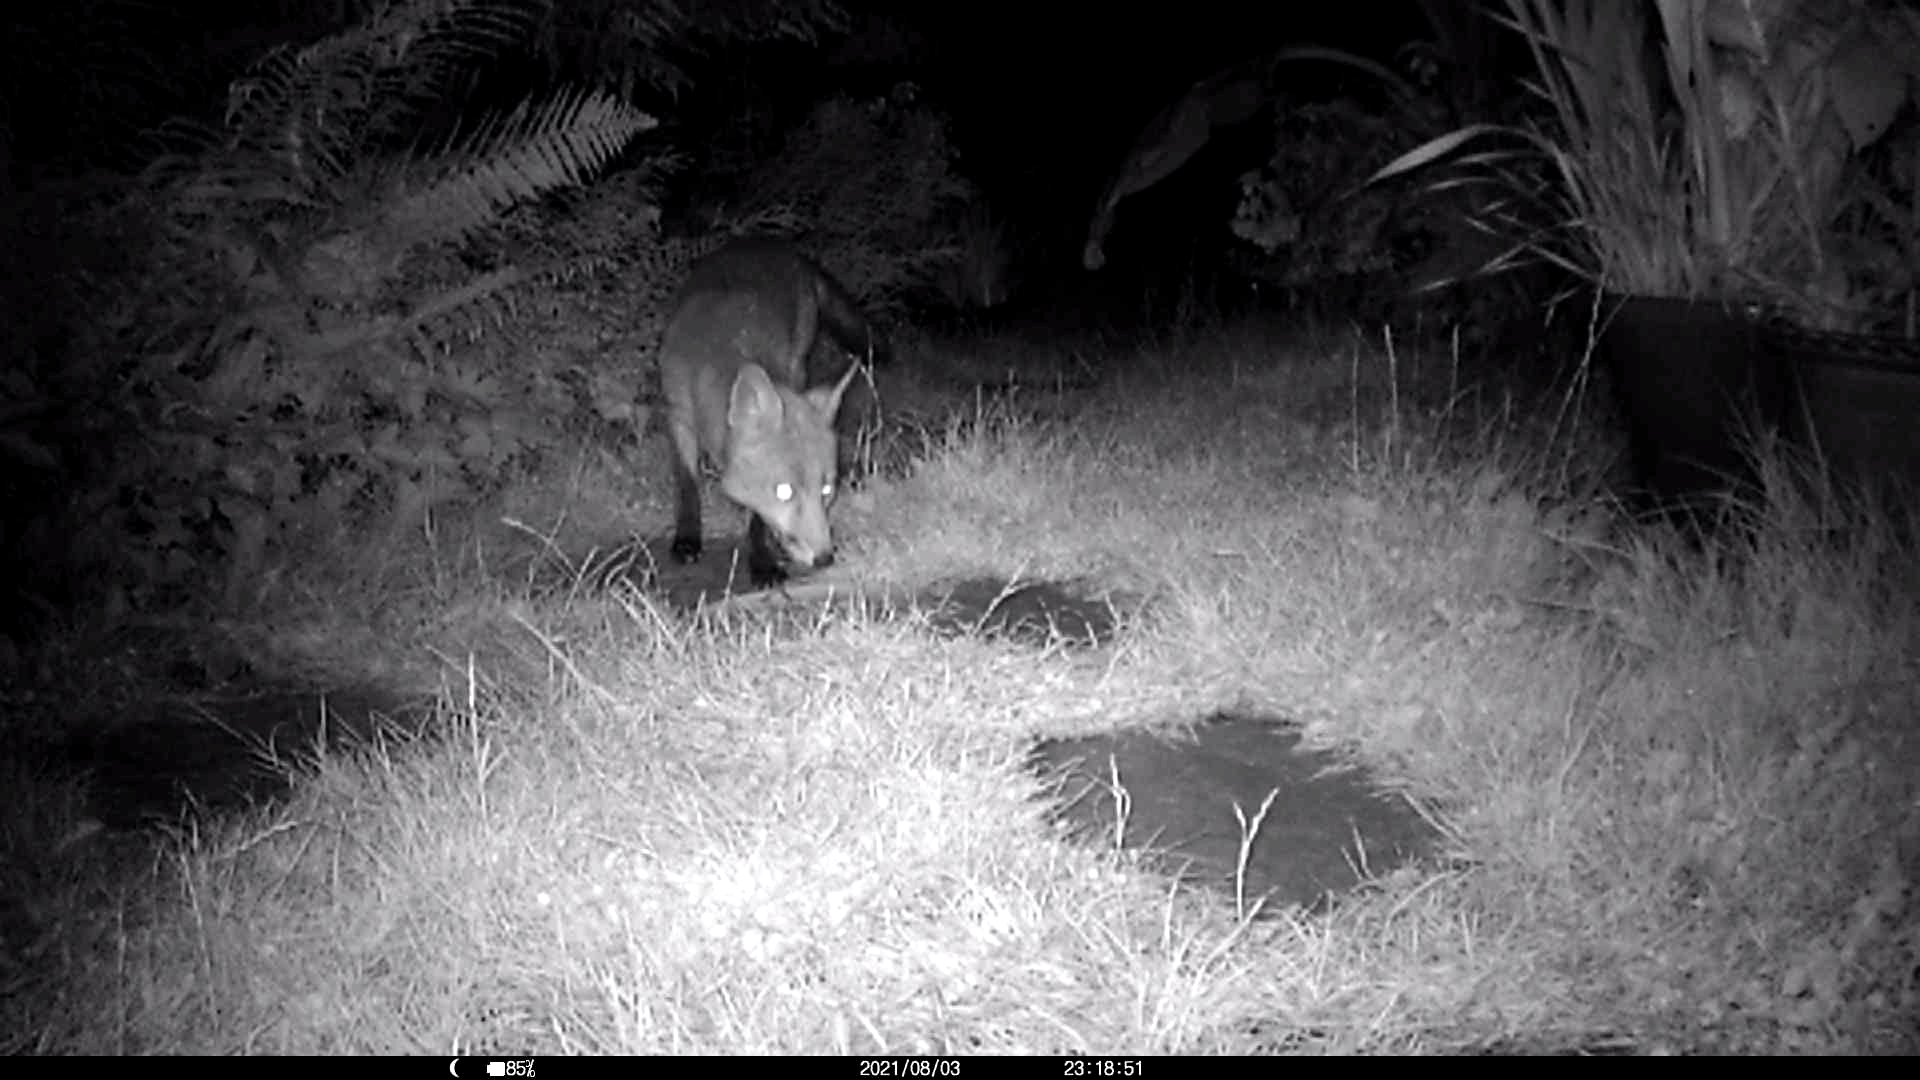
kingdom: Animalia
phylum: Chordata
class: Mammalia
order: Carnivora
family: Canidae
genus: Vulpes
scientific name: Vulpes vulpes
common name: Red fox
